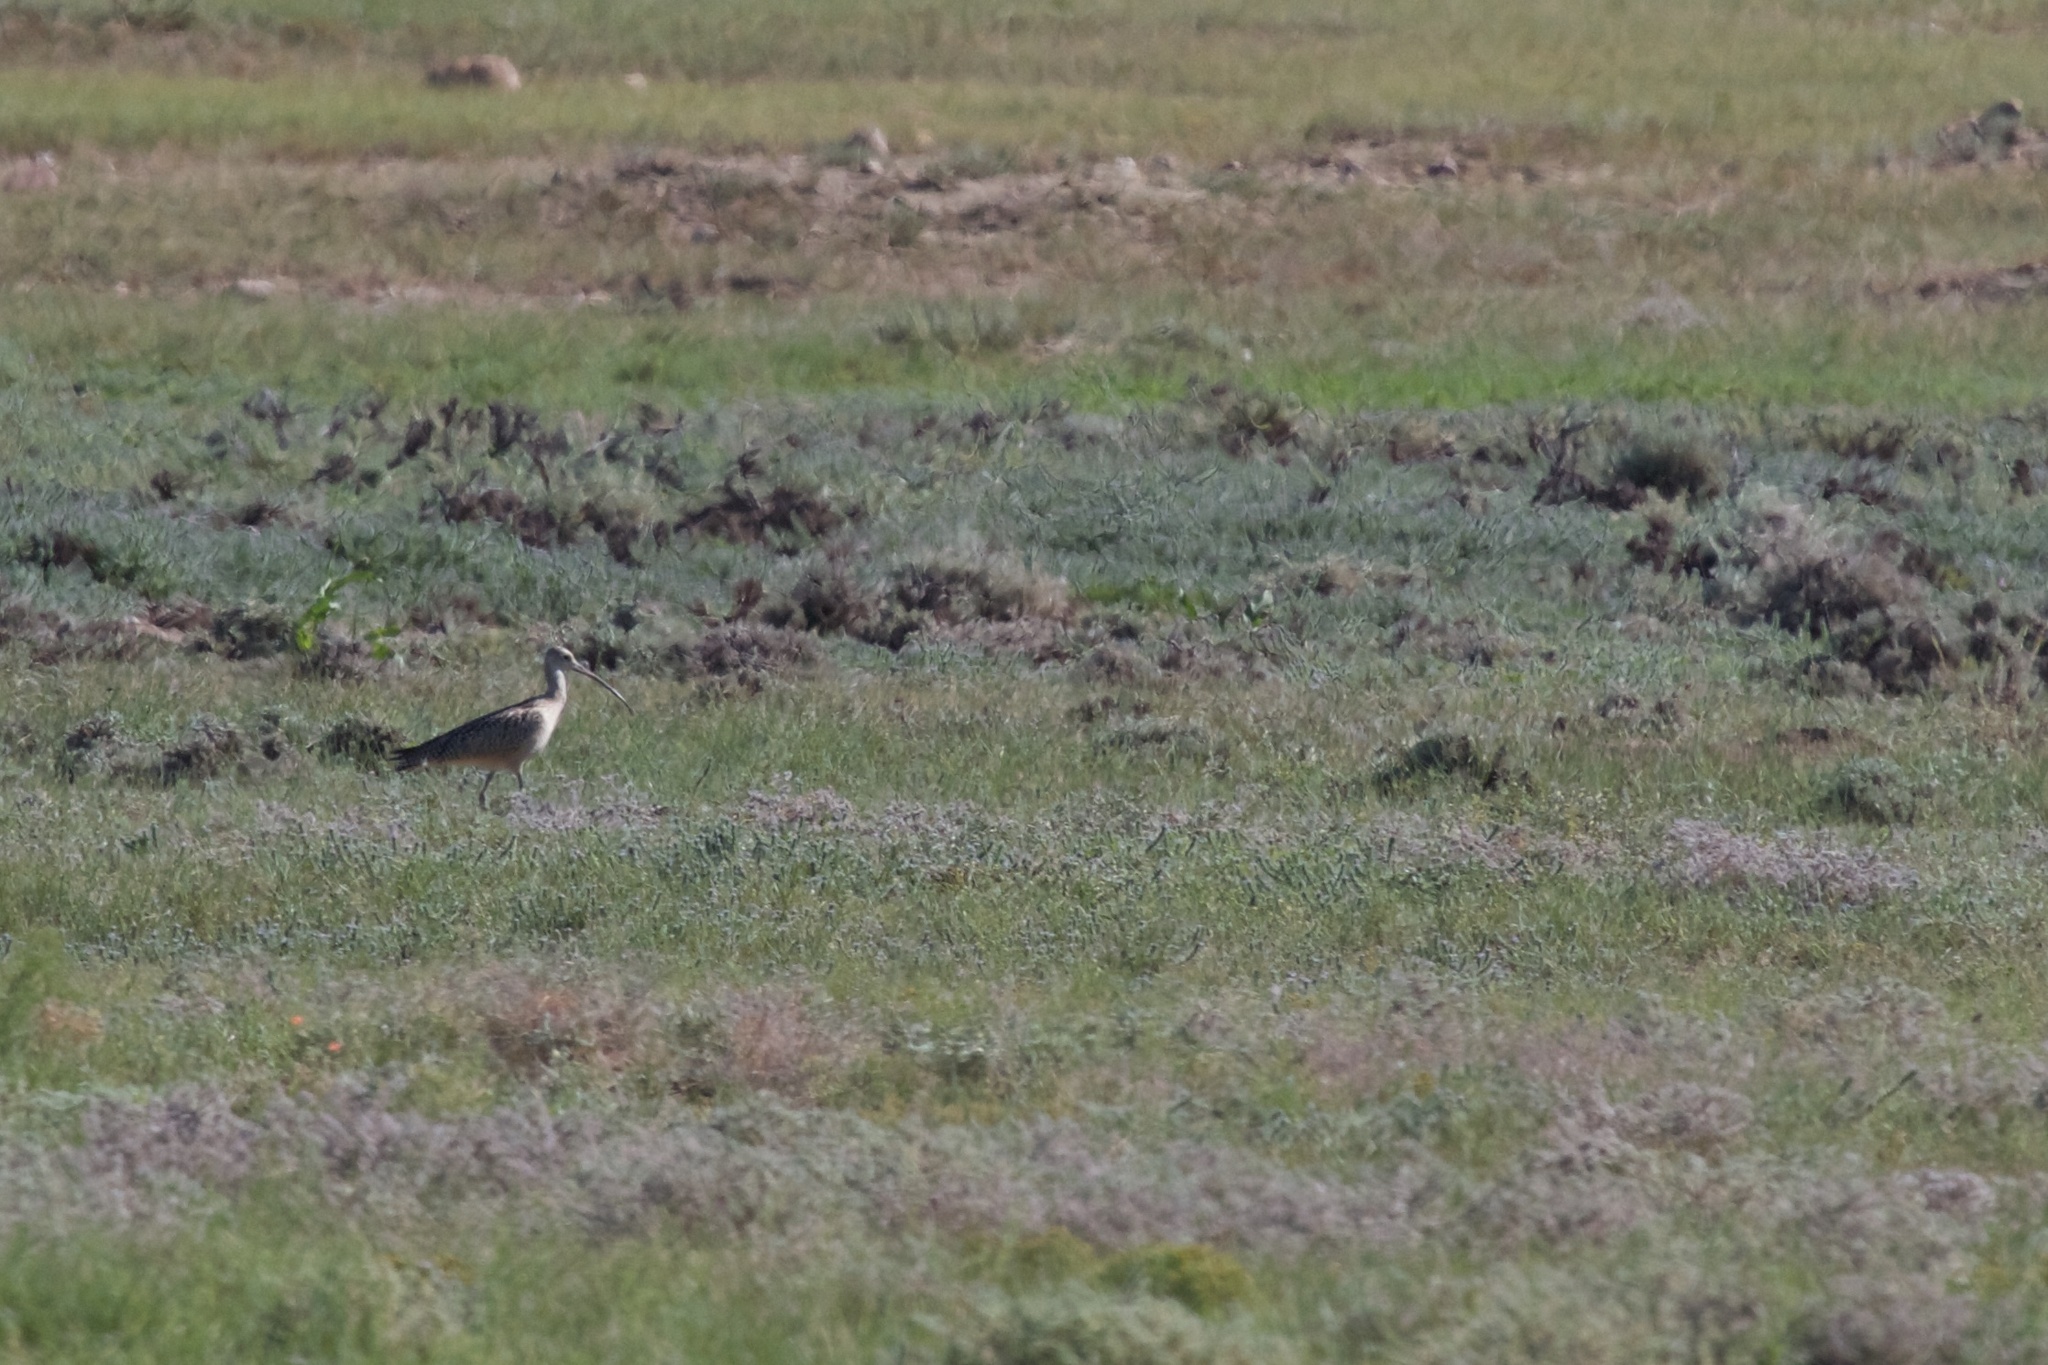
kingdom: Animalia
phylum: Chordata
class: Aves
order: Charadriiformes
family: Scolopacidae
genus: Numenius
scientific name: Numenius americanus
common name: Long-billed curlew
